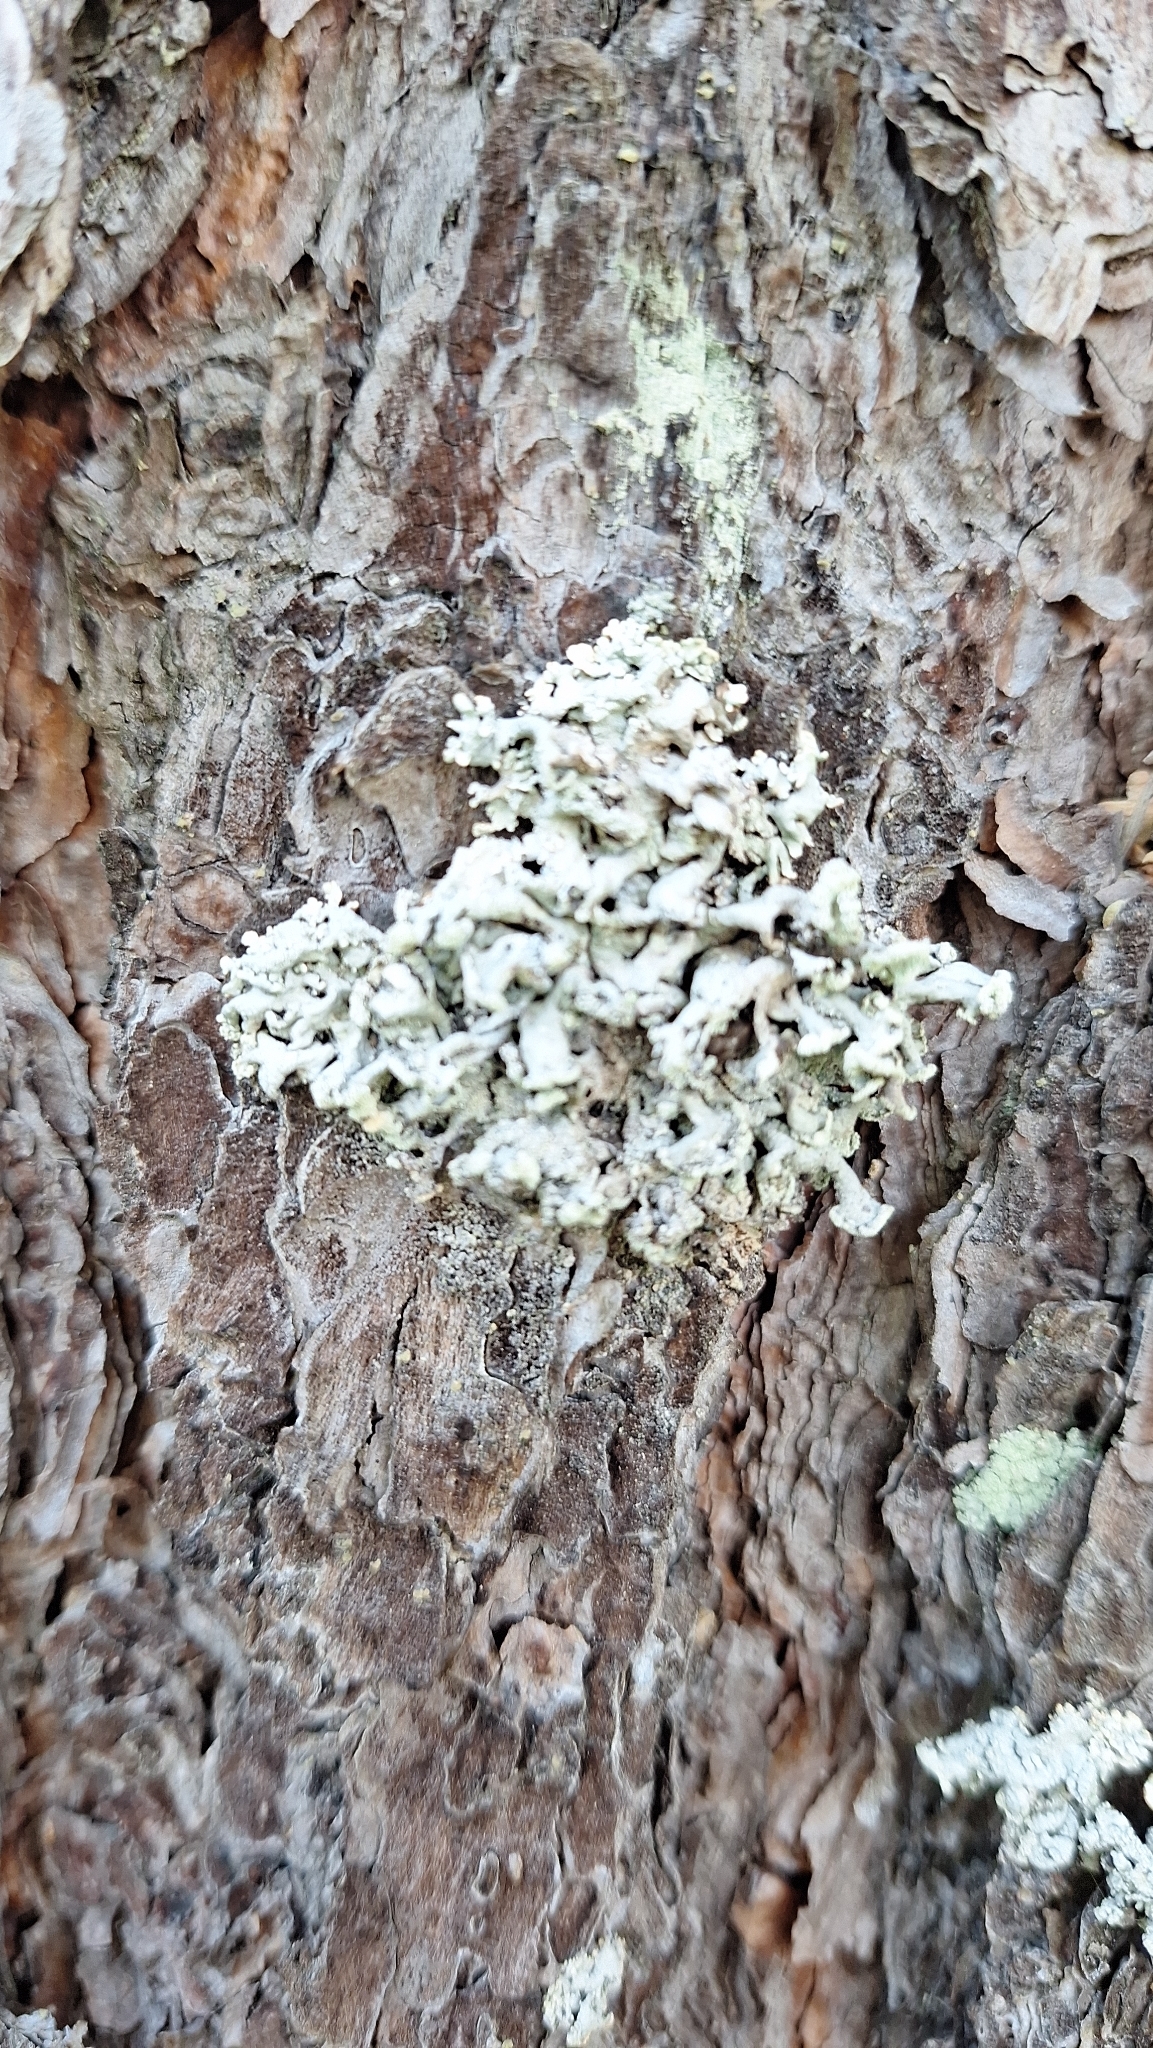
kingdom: Fungi
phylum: Ascomycota
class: Lecanoromycetes
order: Lecanorales
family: Parmeliaceae
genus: Hypogymnia
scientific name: Hypogymnia physodes
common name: Dark crottle
